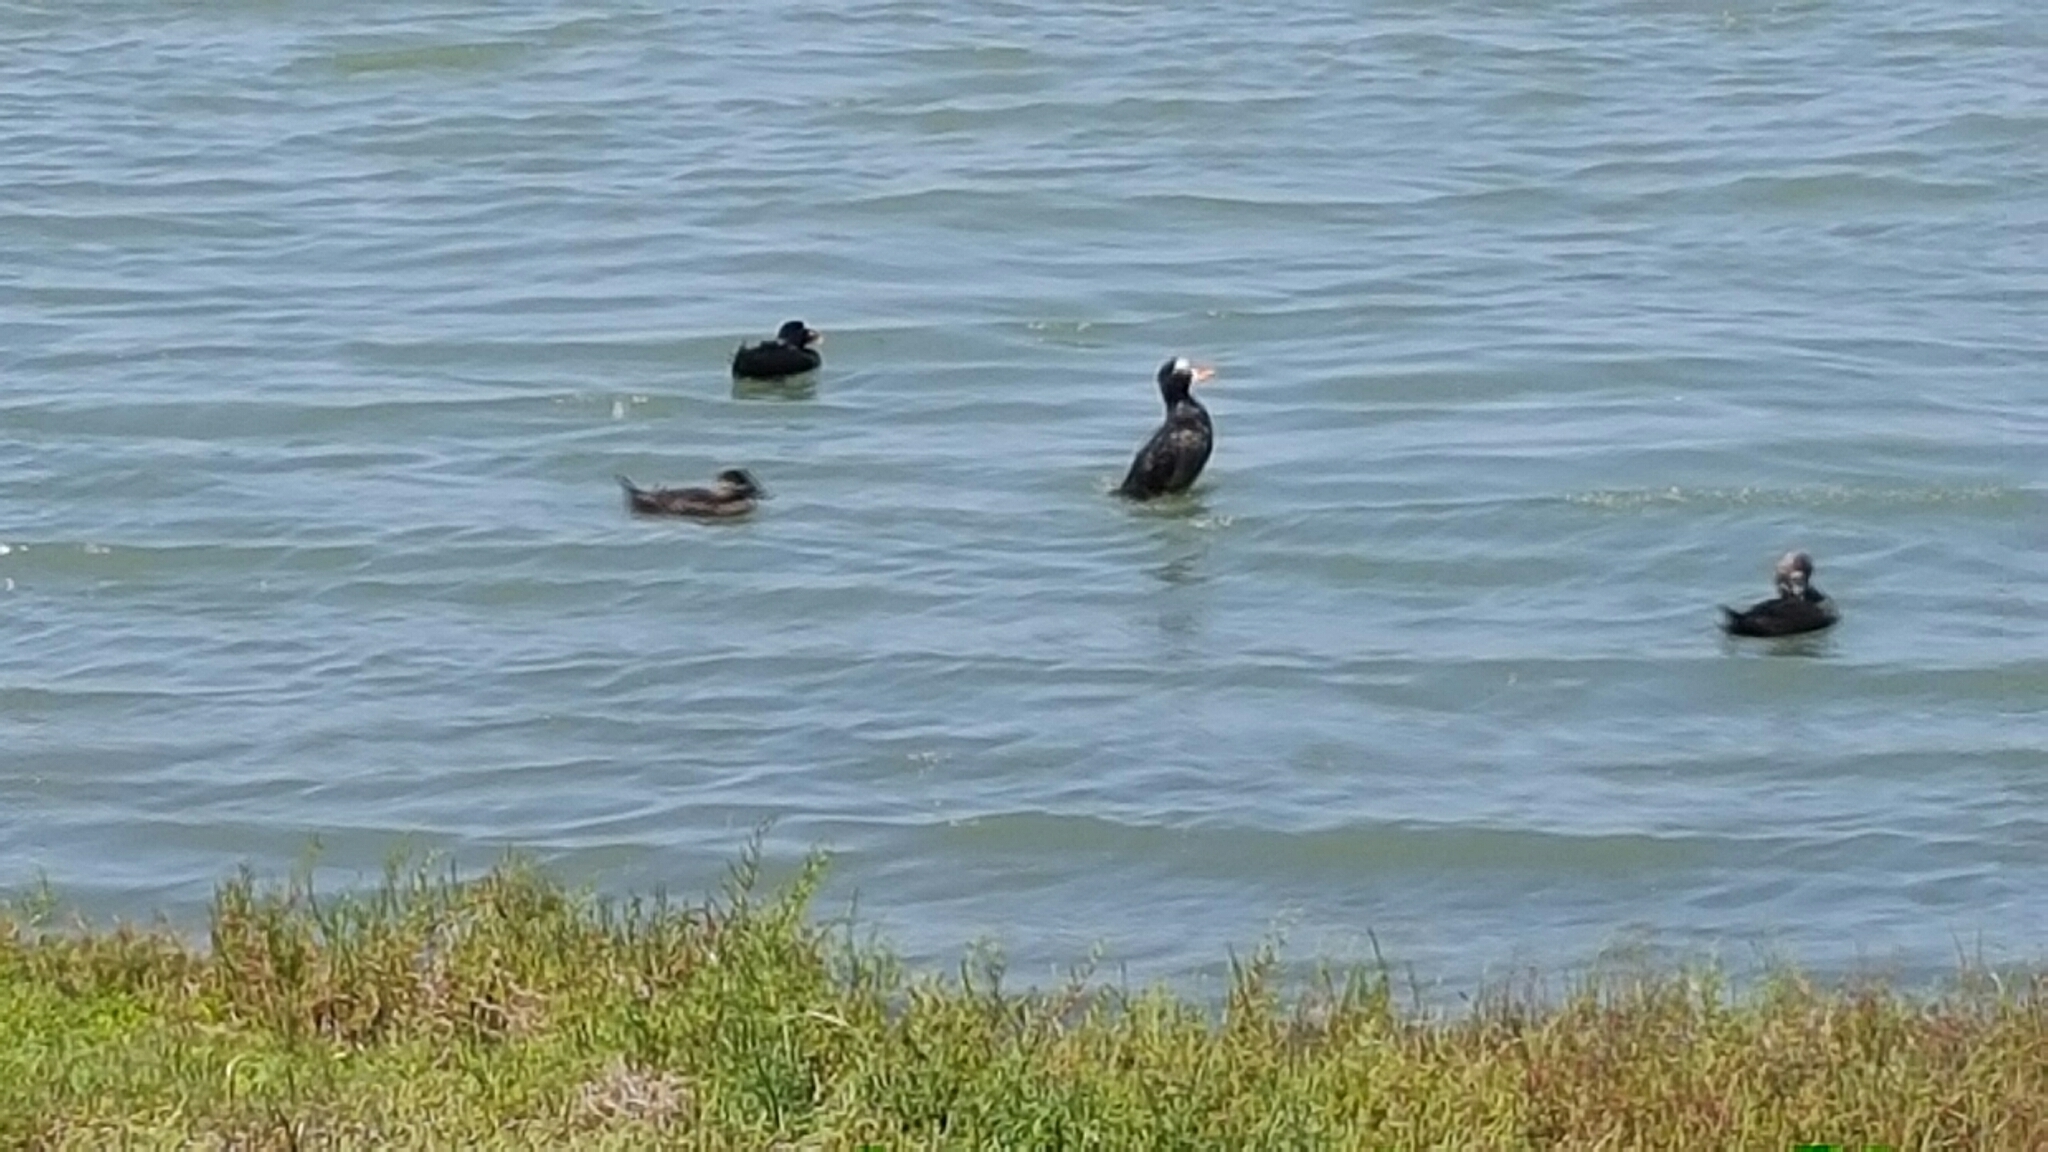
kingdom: Animalia
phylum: Chordata
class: Aves
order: Anseriformes
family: Anatidae
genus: Melanitta
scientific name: Melanitta perspicillata
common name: Surf scoter
